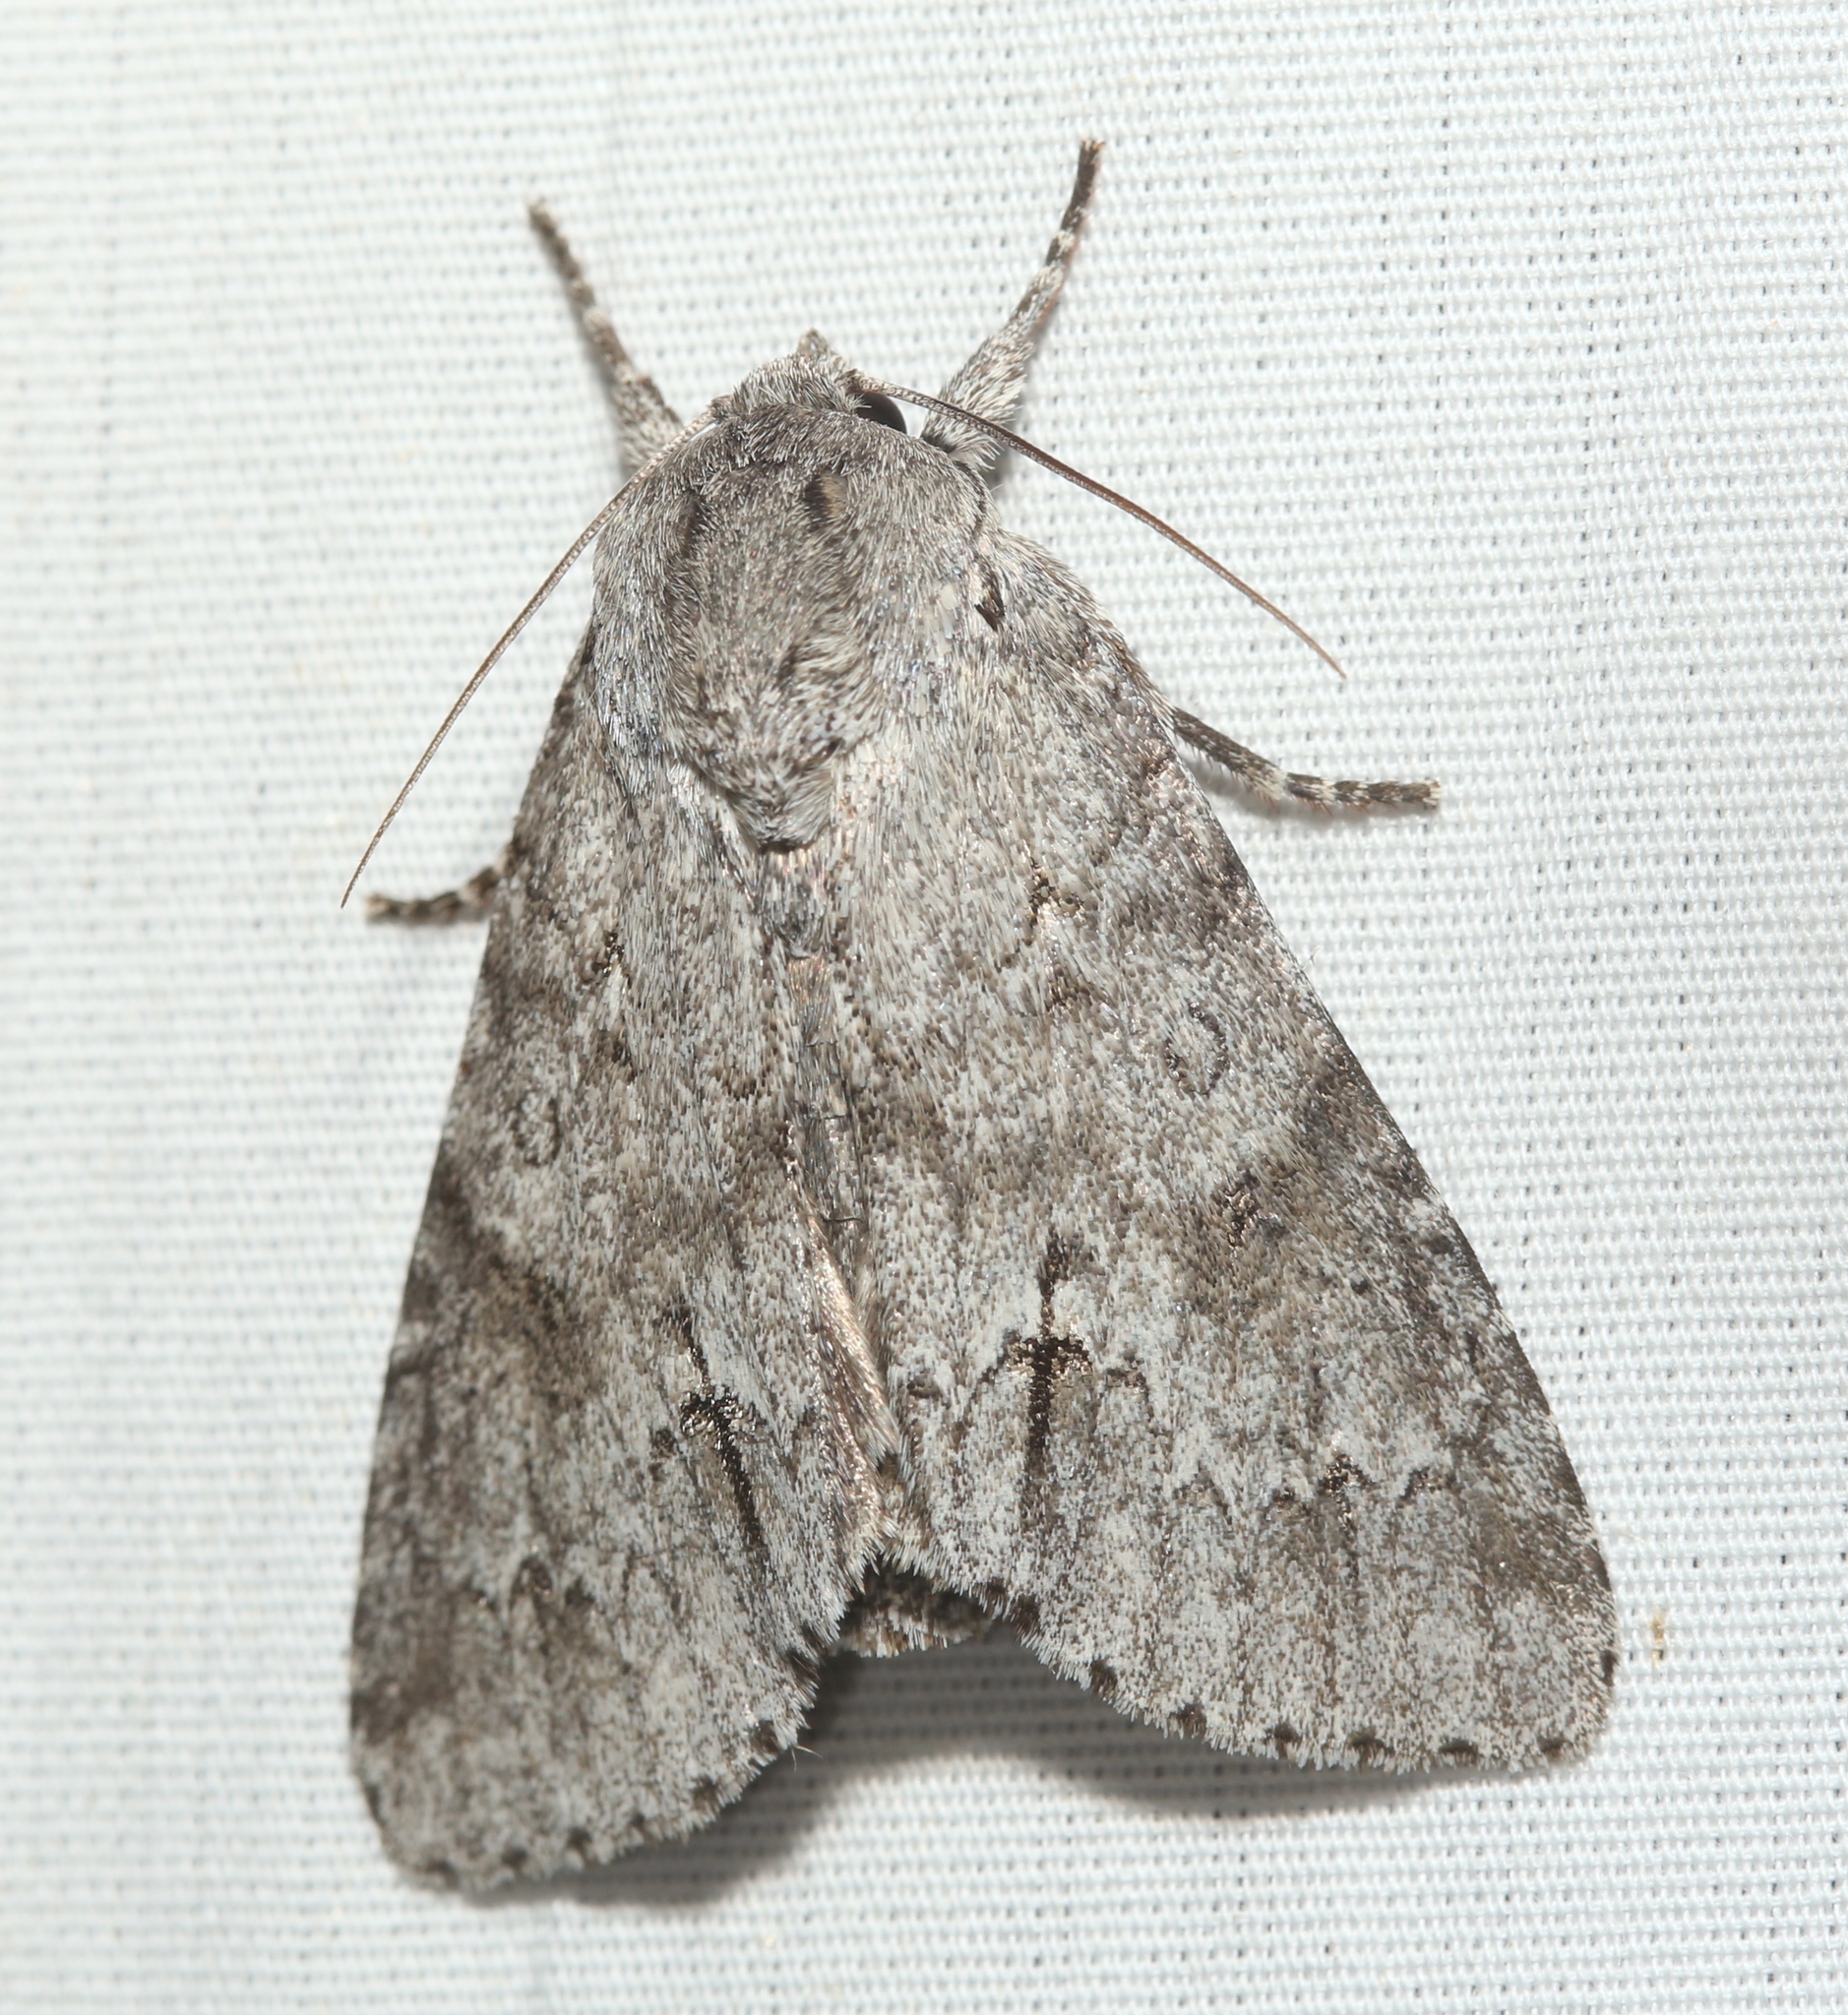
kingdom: Animalia
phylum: Arthropoda
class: Insecta
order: Lepidoptera
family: Noctuidae
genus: Acronicta
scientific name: Acronicta americana
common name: American dagger
